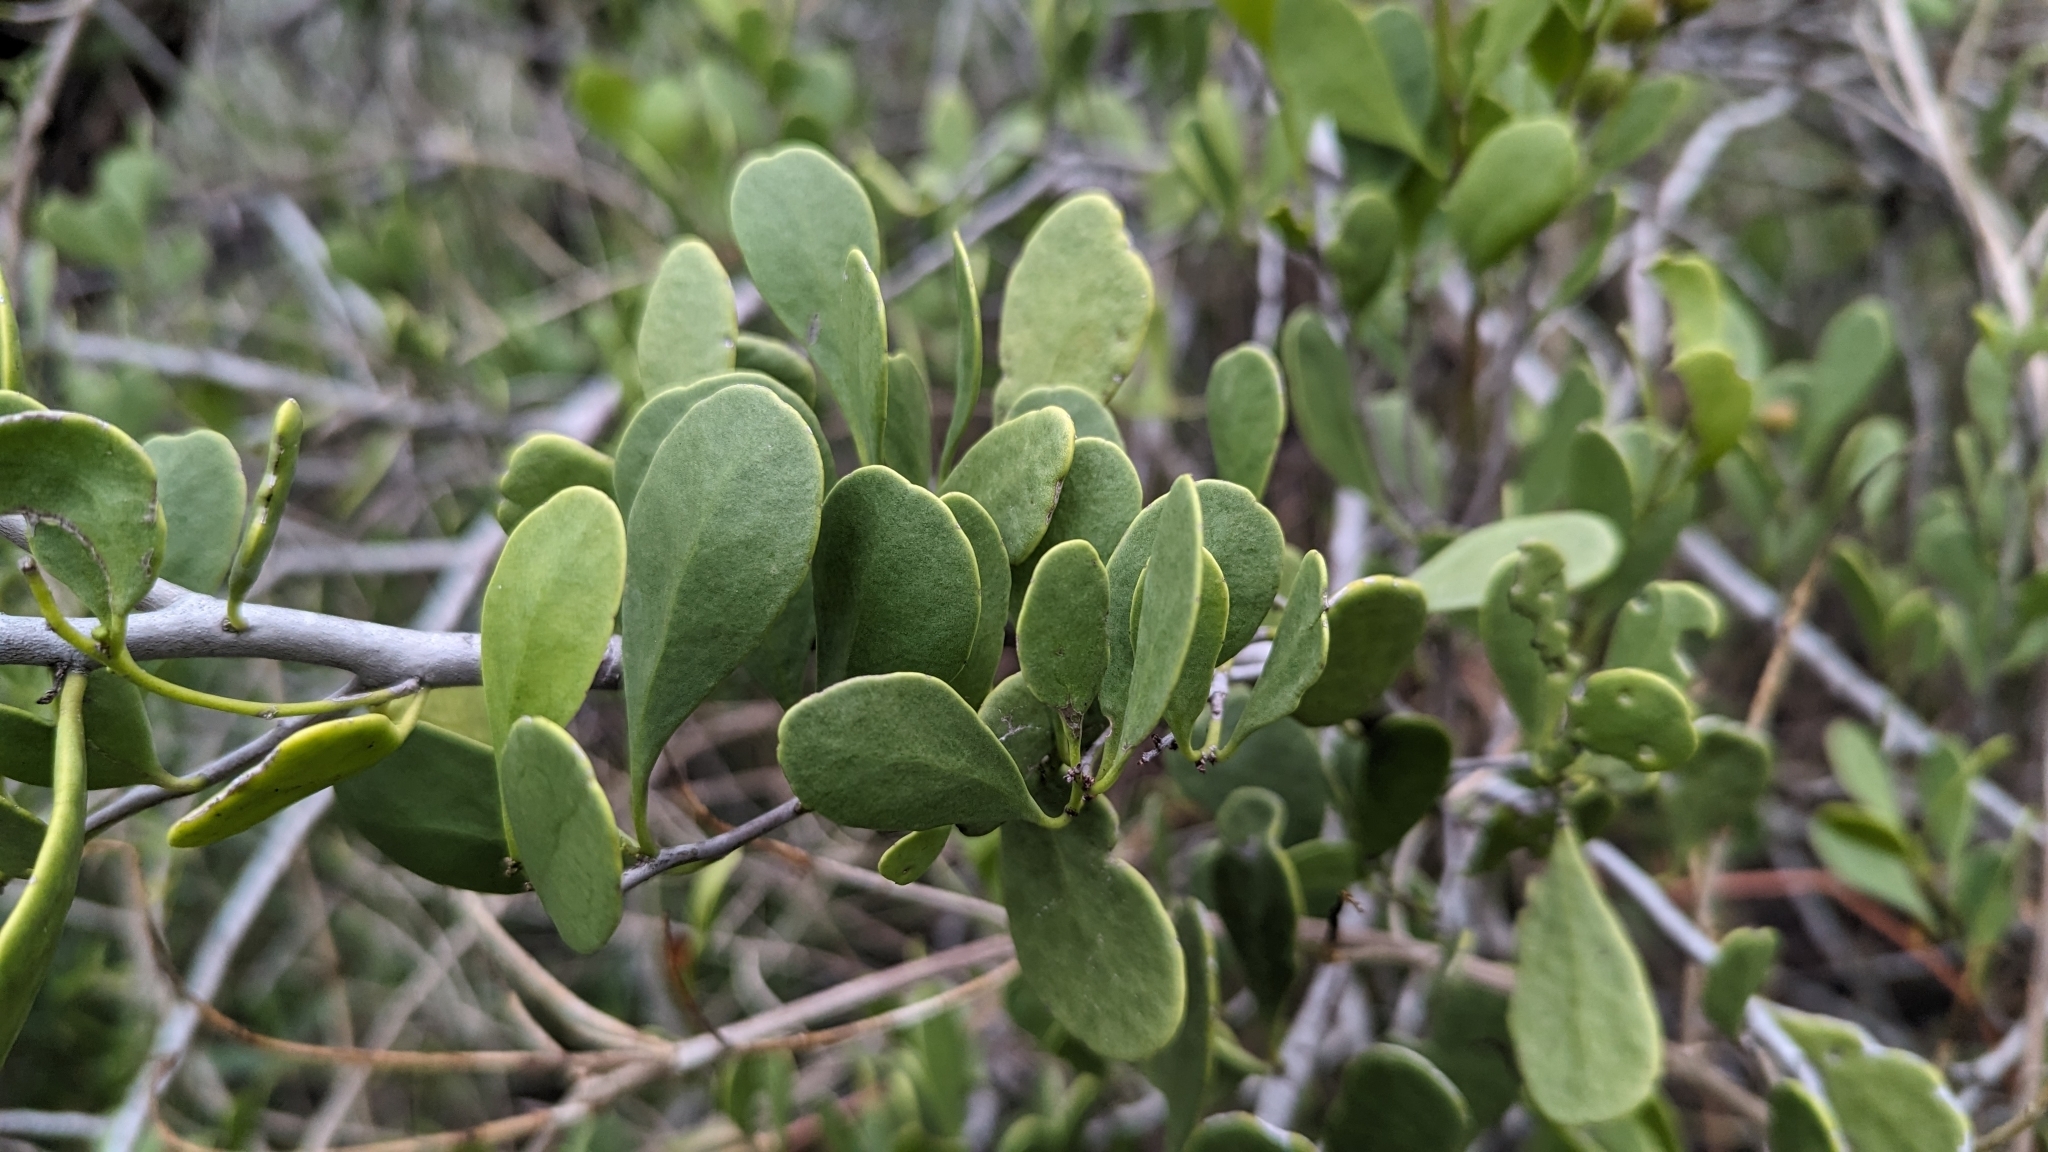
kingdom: Plantae
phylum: Tracheophyta
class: Magnoliopsida
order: Celastrales
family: Celastraceae
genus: Tricerma
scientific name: Tricerma phyllanthoides
